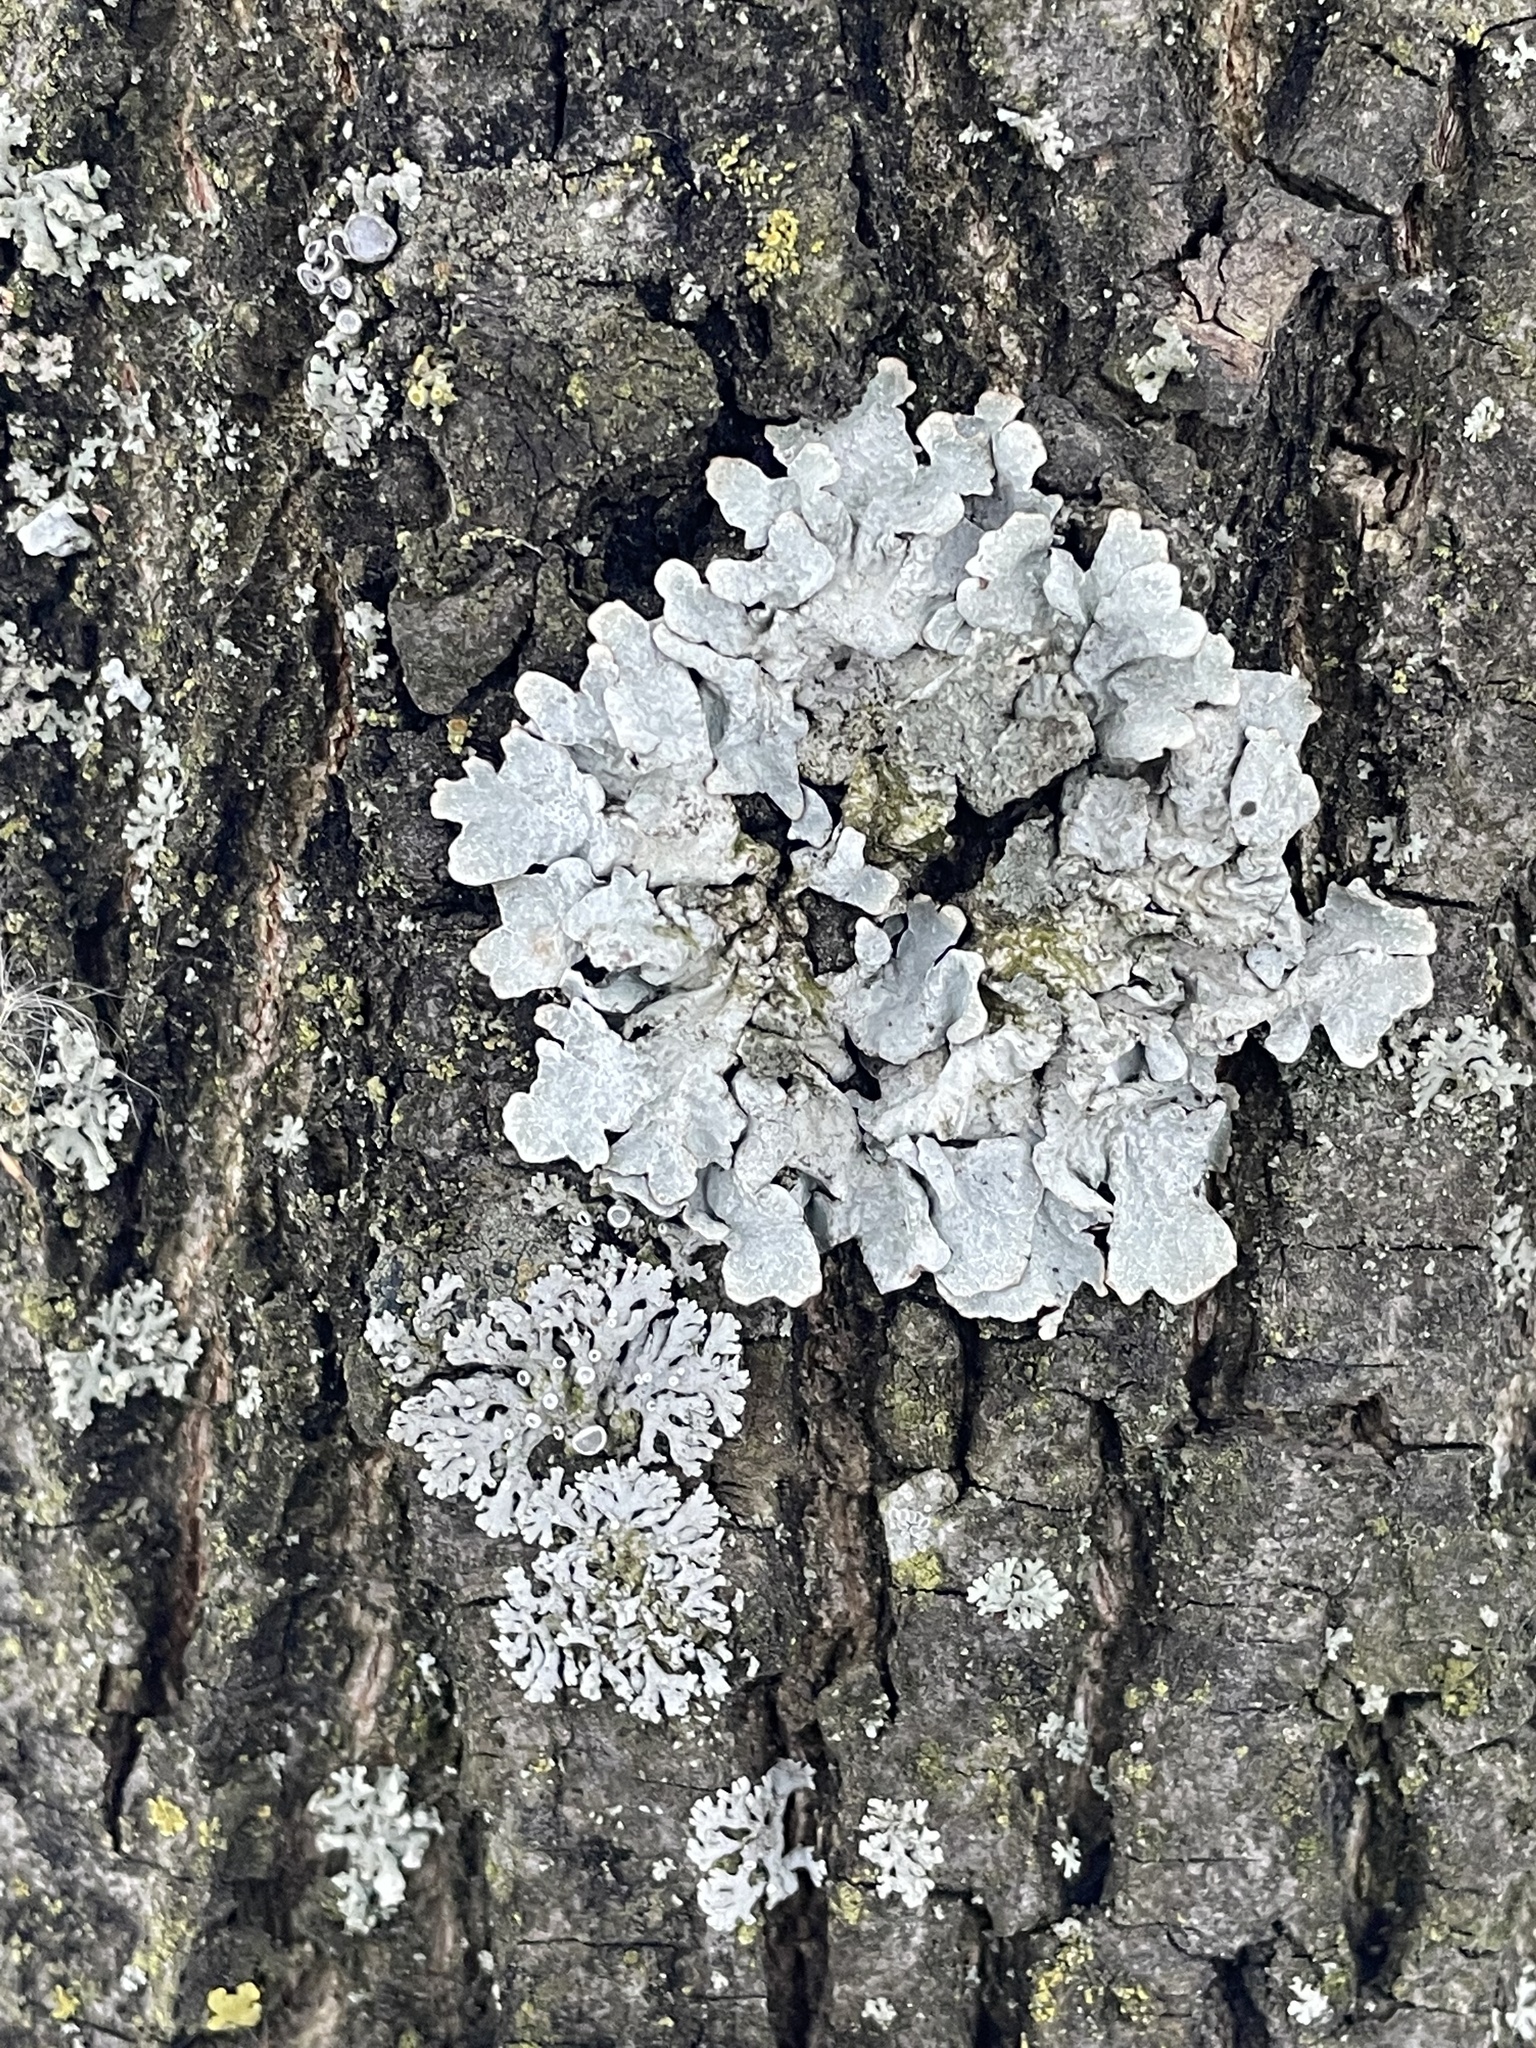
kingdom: Fungi
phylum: Ascomycota
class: Lecanoromycetes
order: Lecanorales
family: Parmeliaceae
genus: Parmelia
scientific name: Parmelia sulcata
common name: Netted shield lichen
